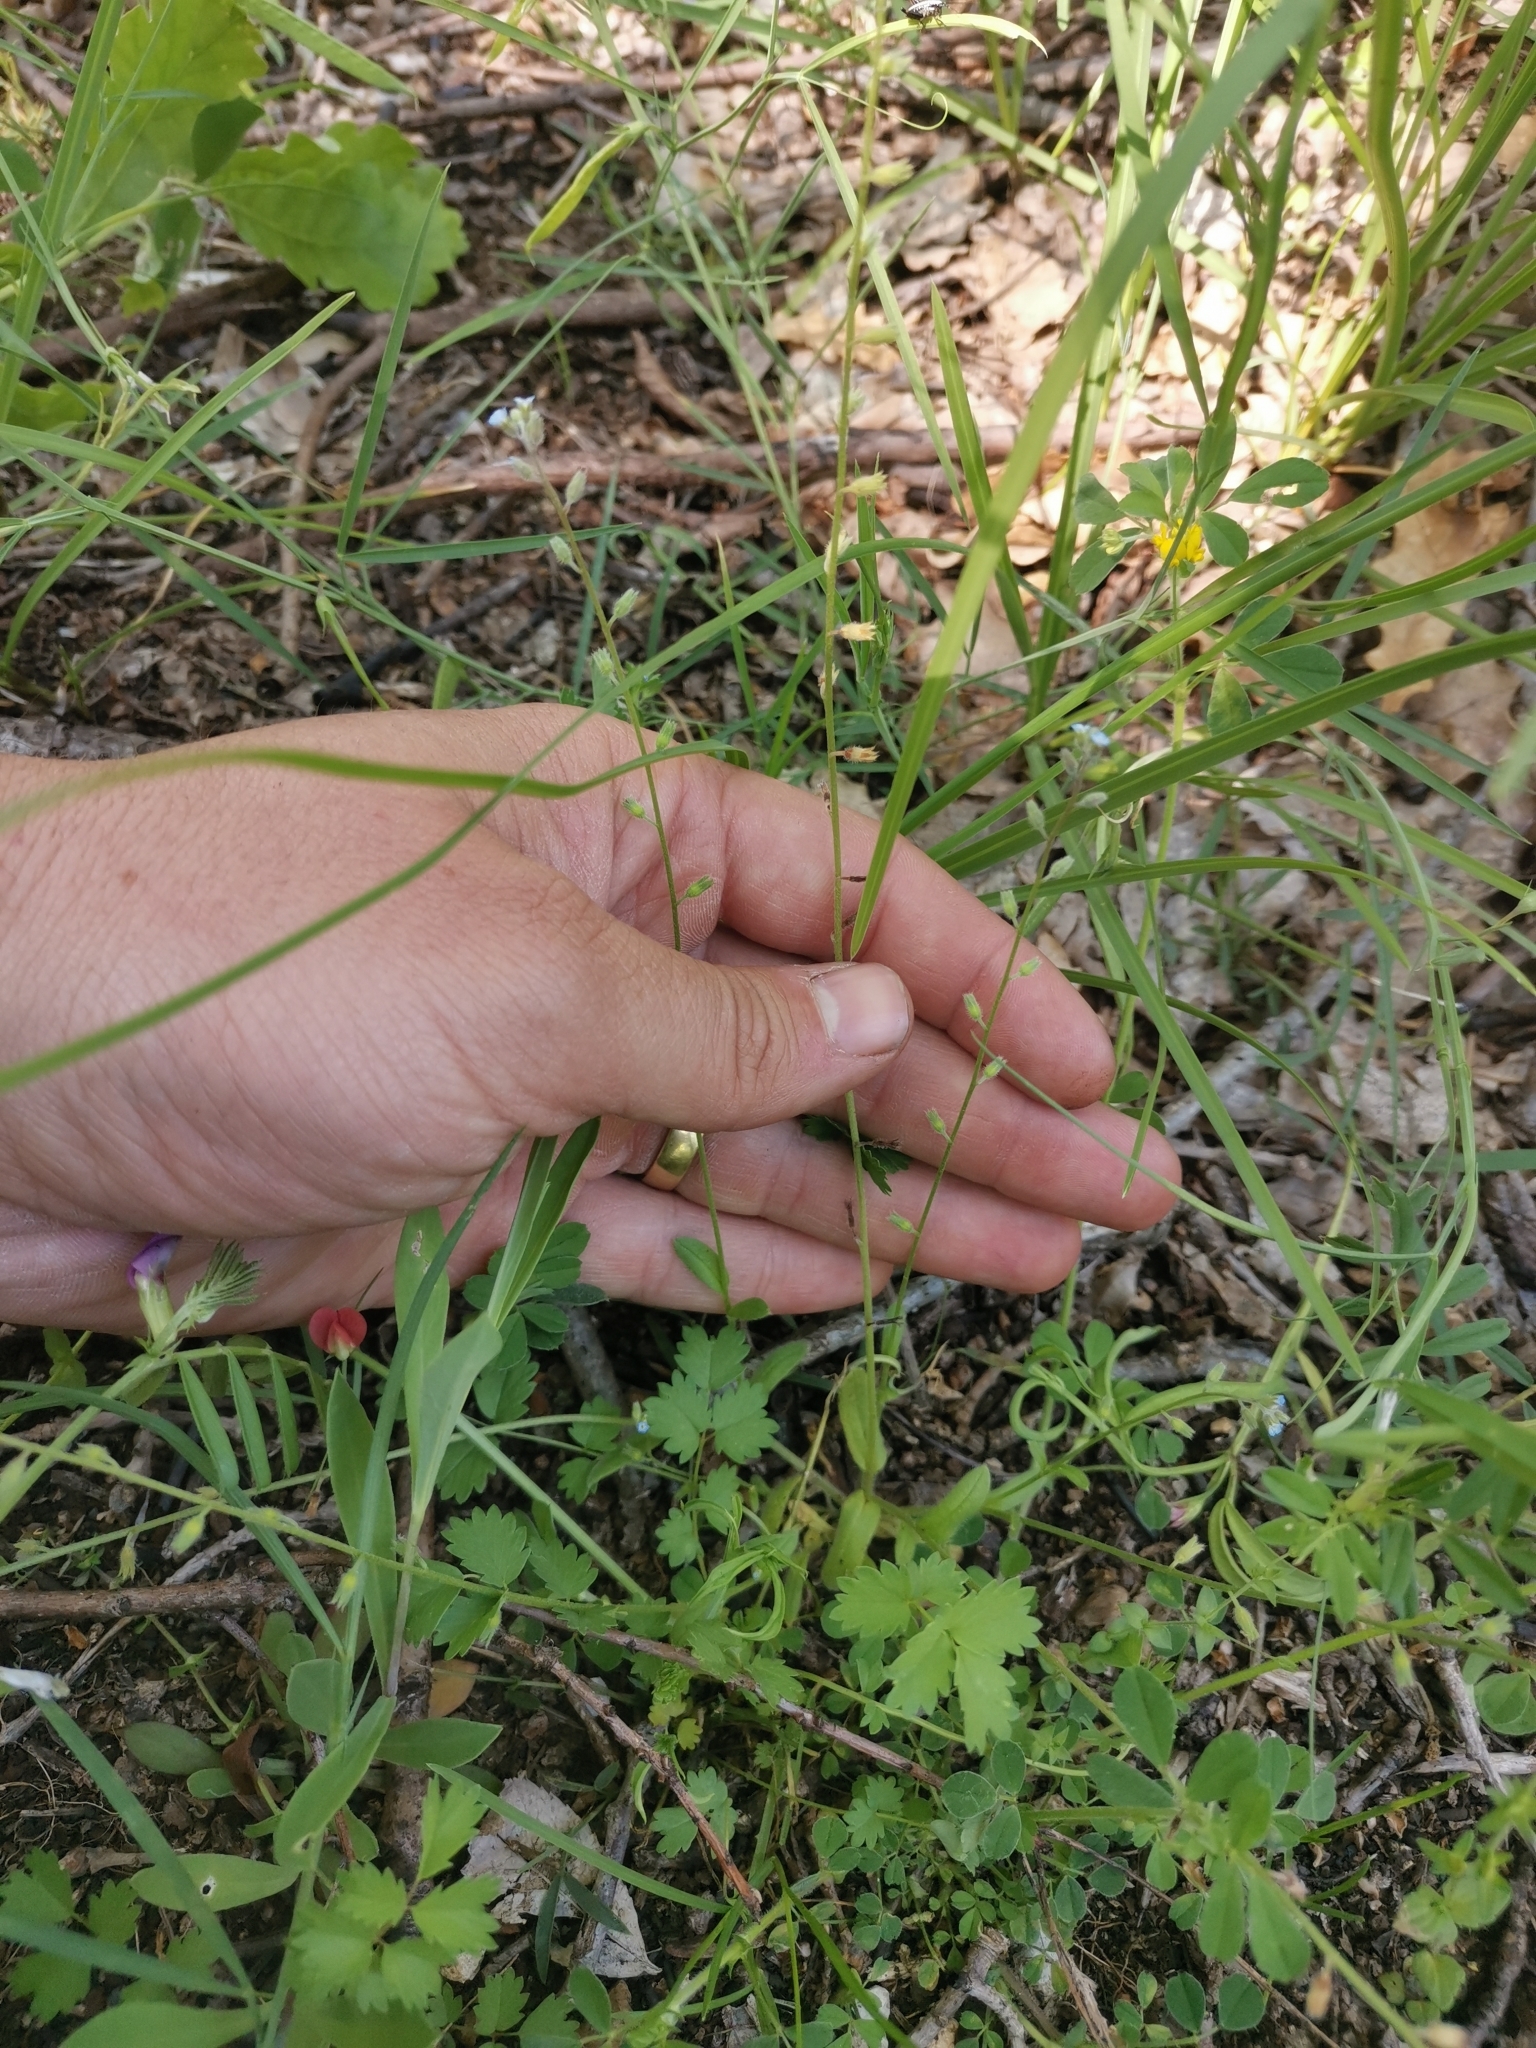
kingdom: Plantae
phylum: Tracheophyta
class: Magnoliopsida
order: Boraginales
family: Boraginaceae
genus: Myosotis
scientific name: Myosotis ramosissima
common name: Early forget-me-not
